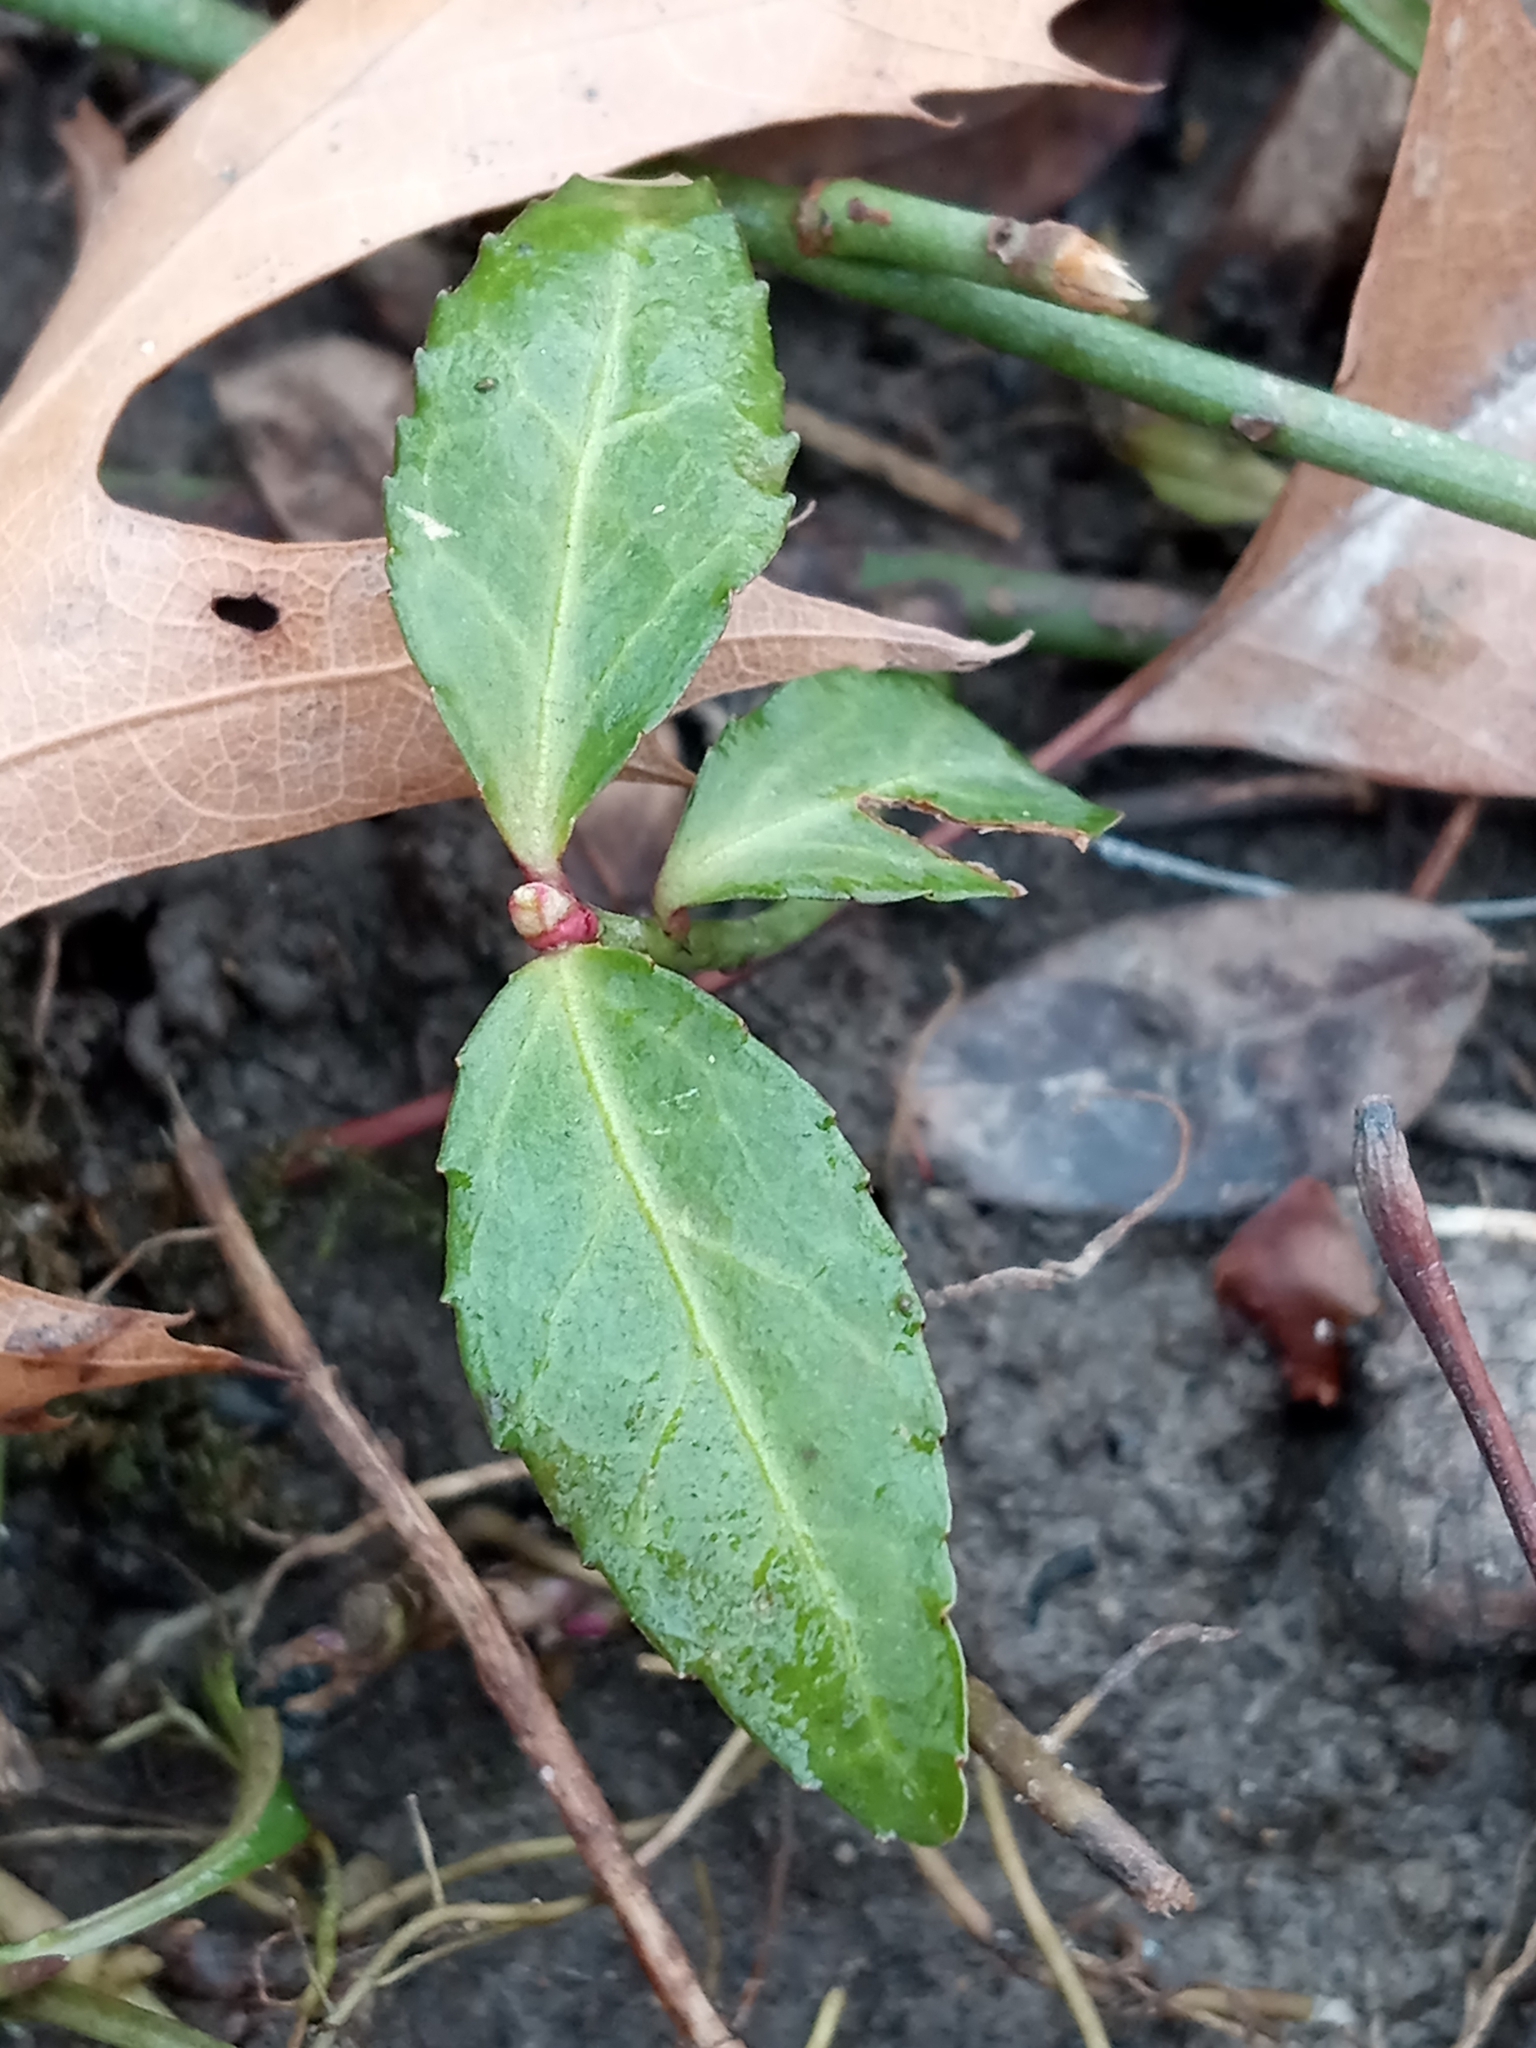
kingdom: Plantae
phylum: Tracheophyta
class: Magnoliopsida
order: Celastrales
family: Celastraceae
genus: Euonymus
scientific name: Euonymus fortunei
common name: Climbing euonymus
